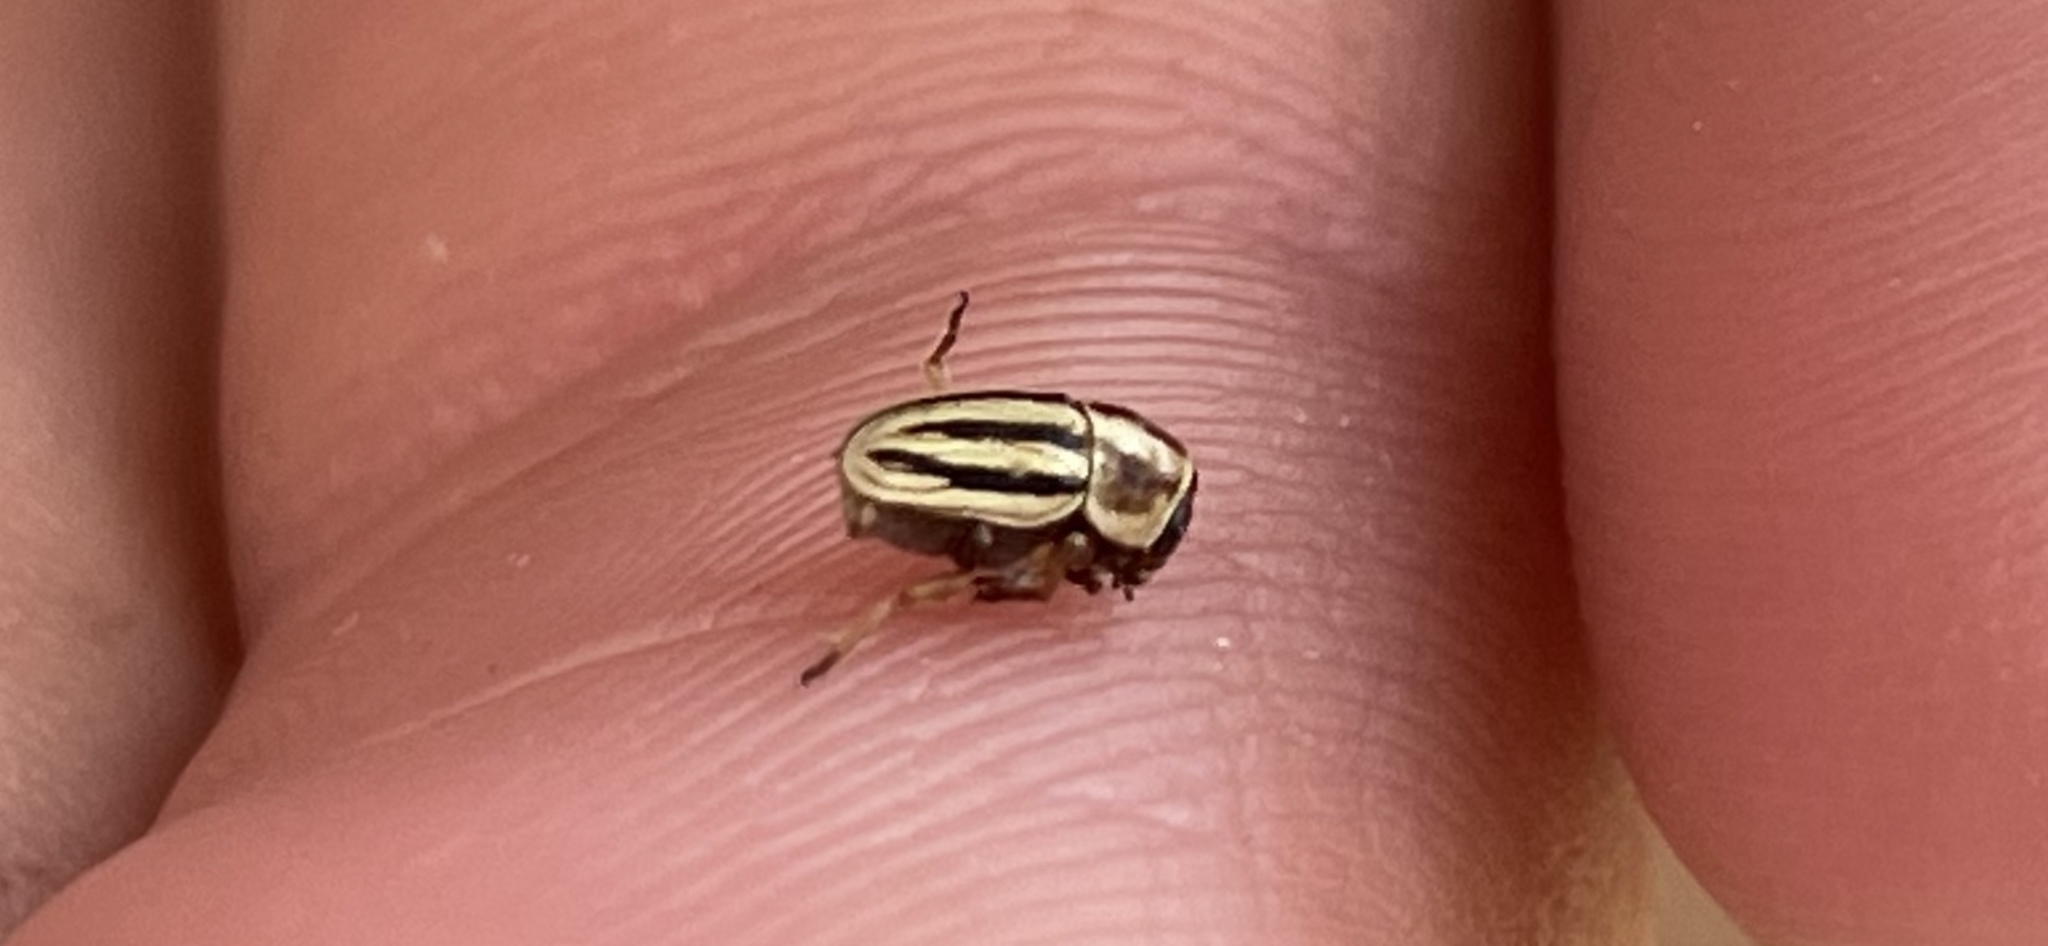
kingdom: Animalia
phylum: Arthropoda
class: Insecta
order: Coleoptera
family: Chrysomelidae
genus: Pachybrachis
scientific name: Pachybrachis dubiosus
